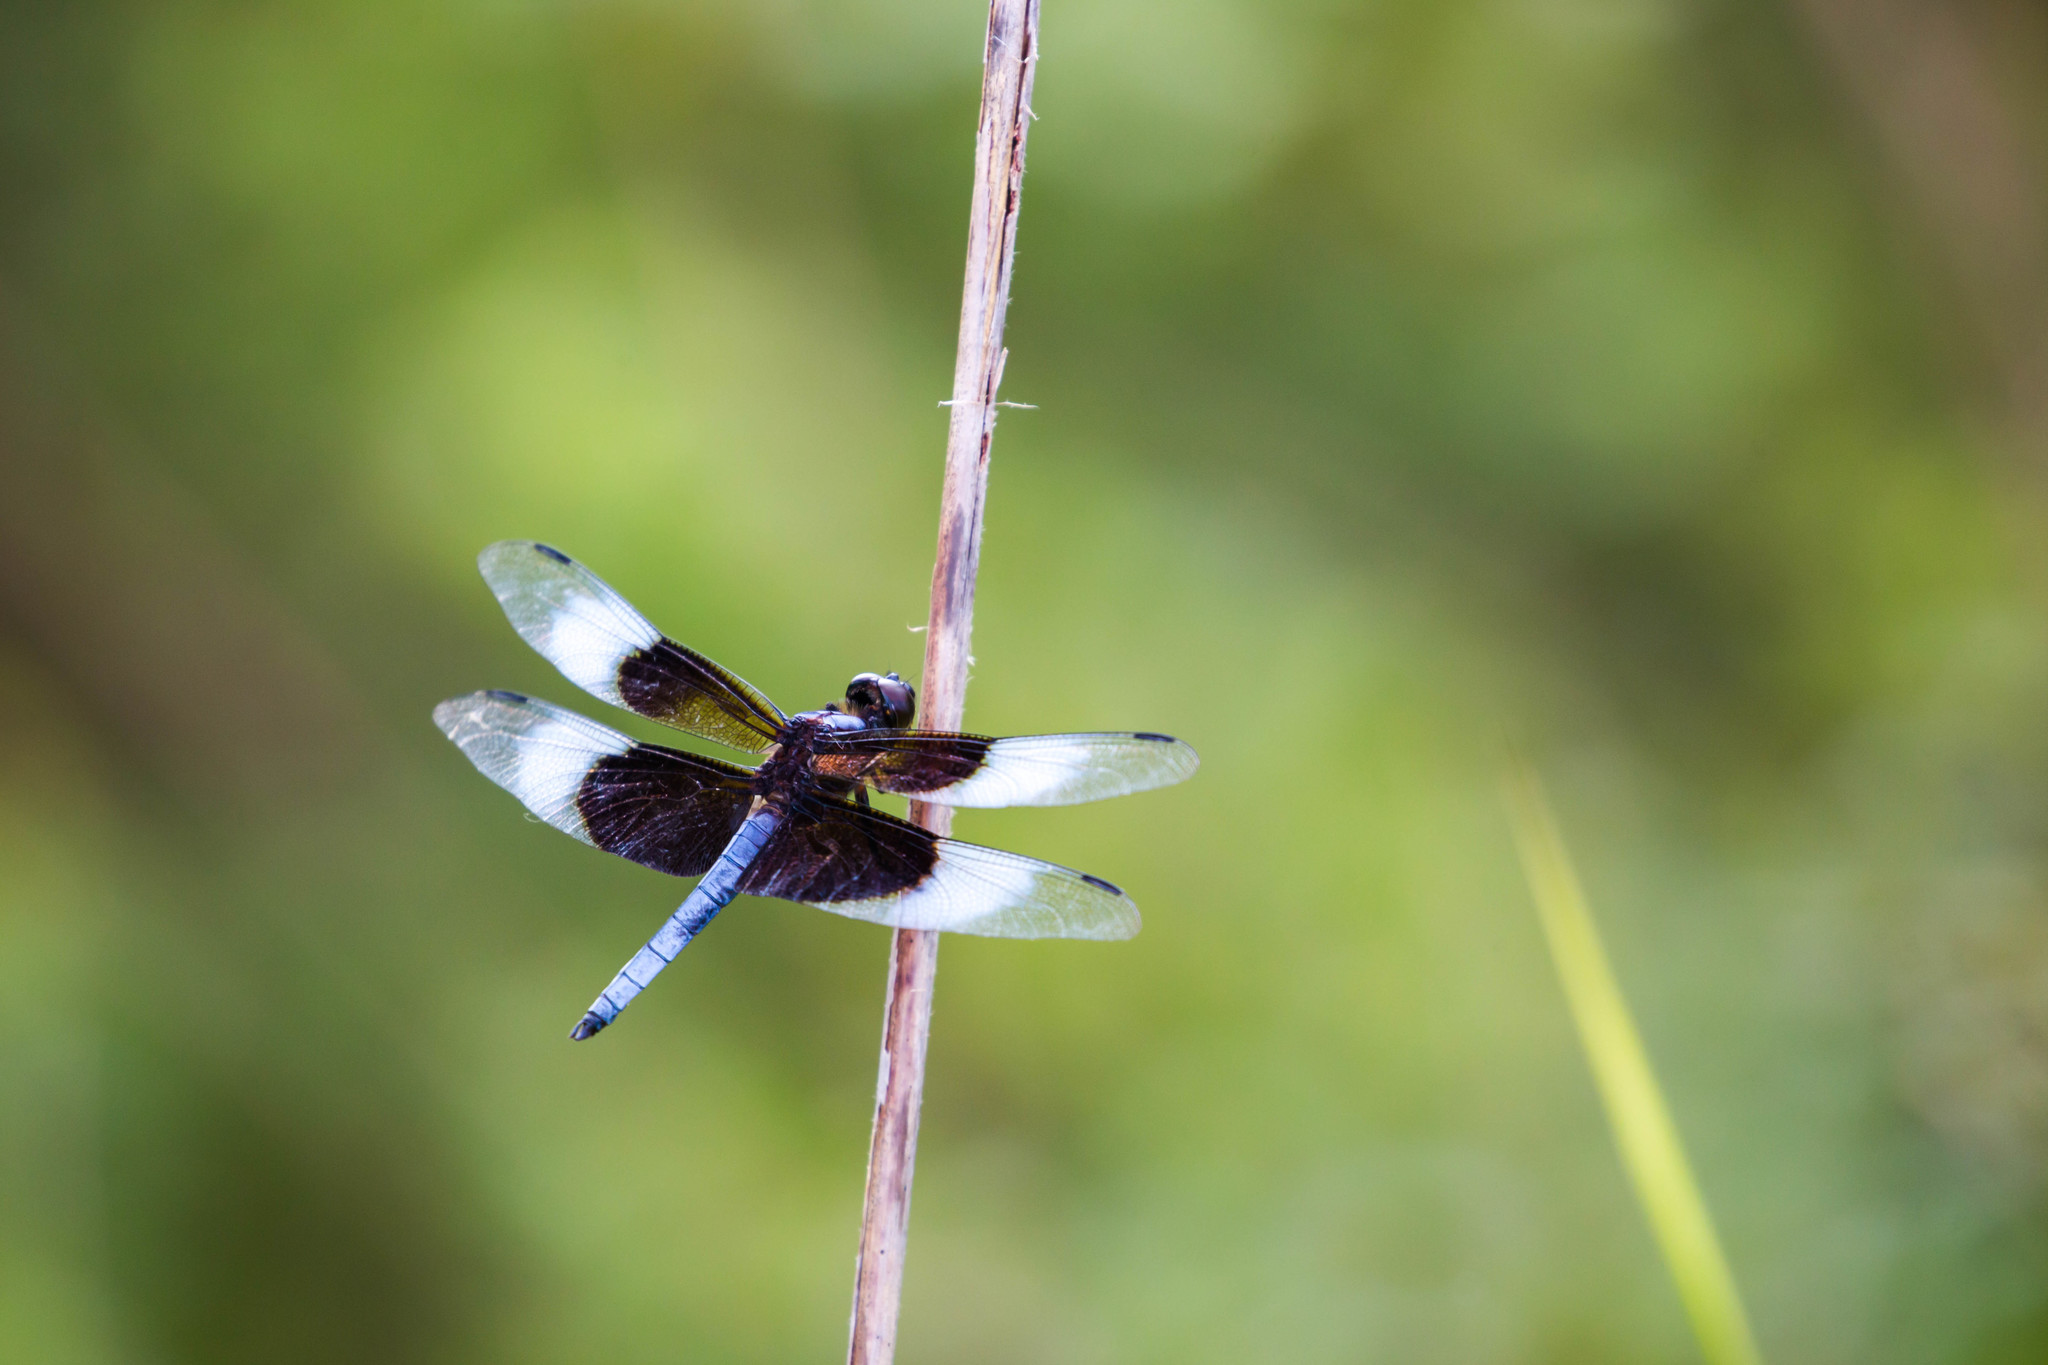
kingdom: Animalia
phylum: Arthropoda
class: Insecta
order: Odonata
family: Libellulidae
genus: Libellula
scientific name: Libellula luctuosa
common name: Widow skimmer
